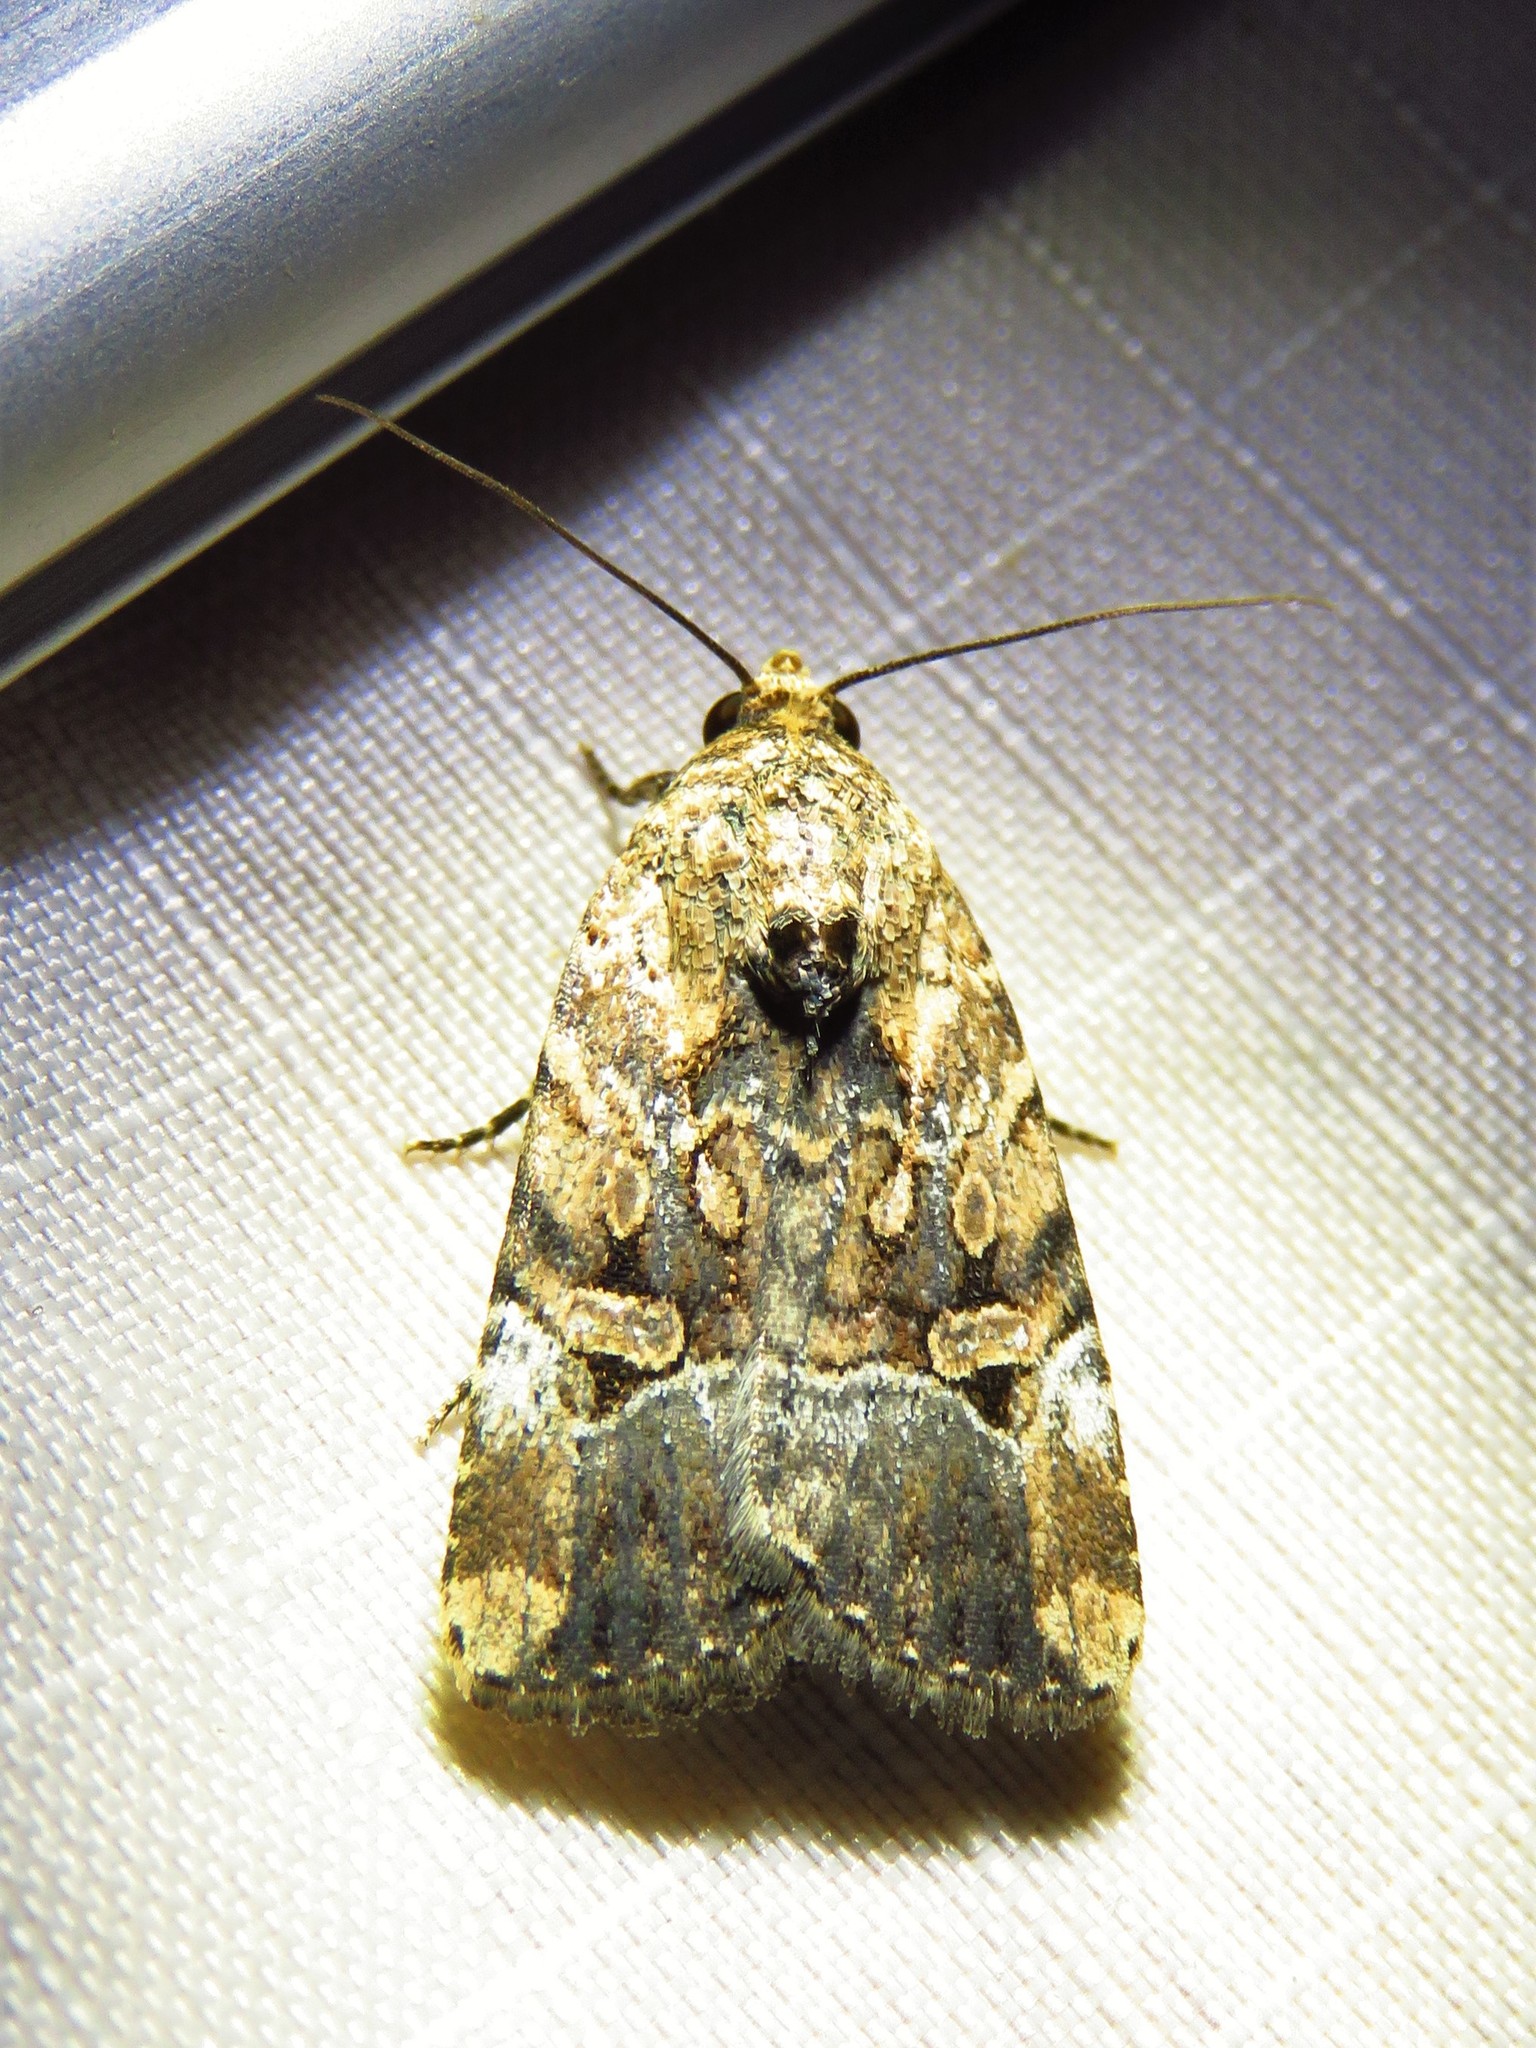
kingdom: Animalia
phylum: Arthropoda
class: Insecta
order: Lepidoptera
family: Noctuidae
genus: Elaphria
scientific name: Elaphria chalcedonia
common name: Chalcedony midget
